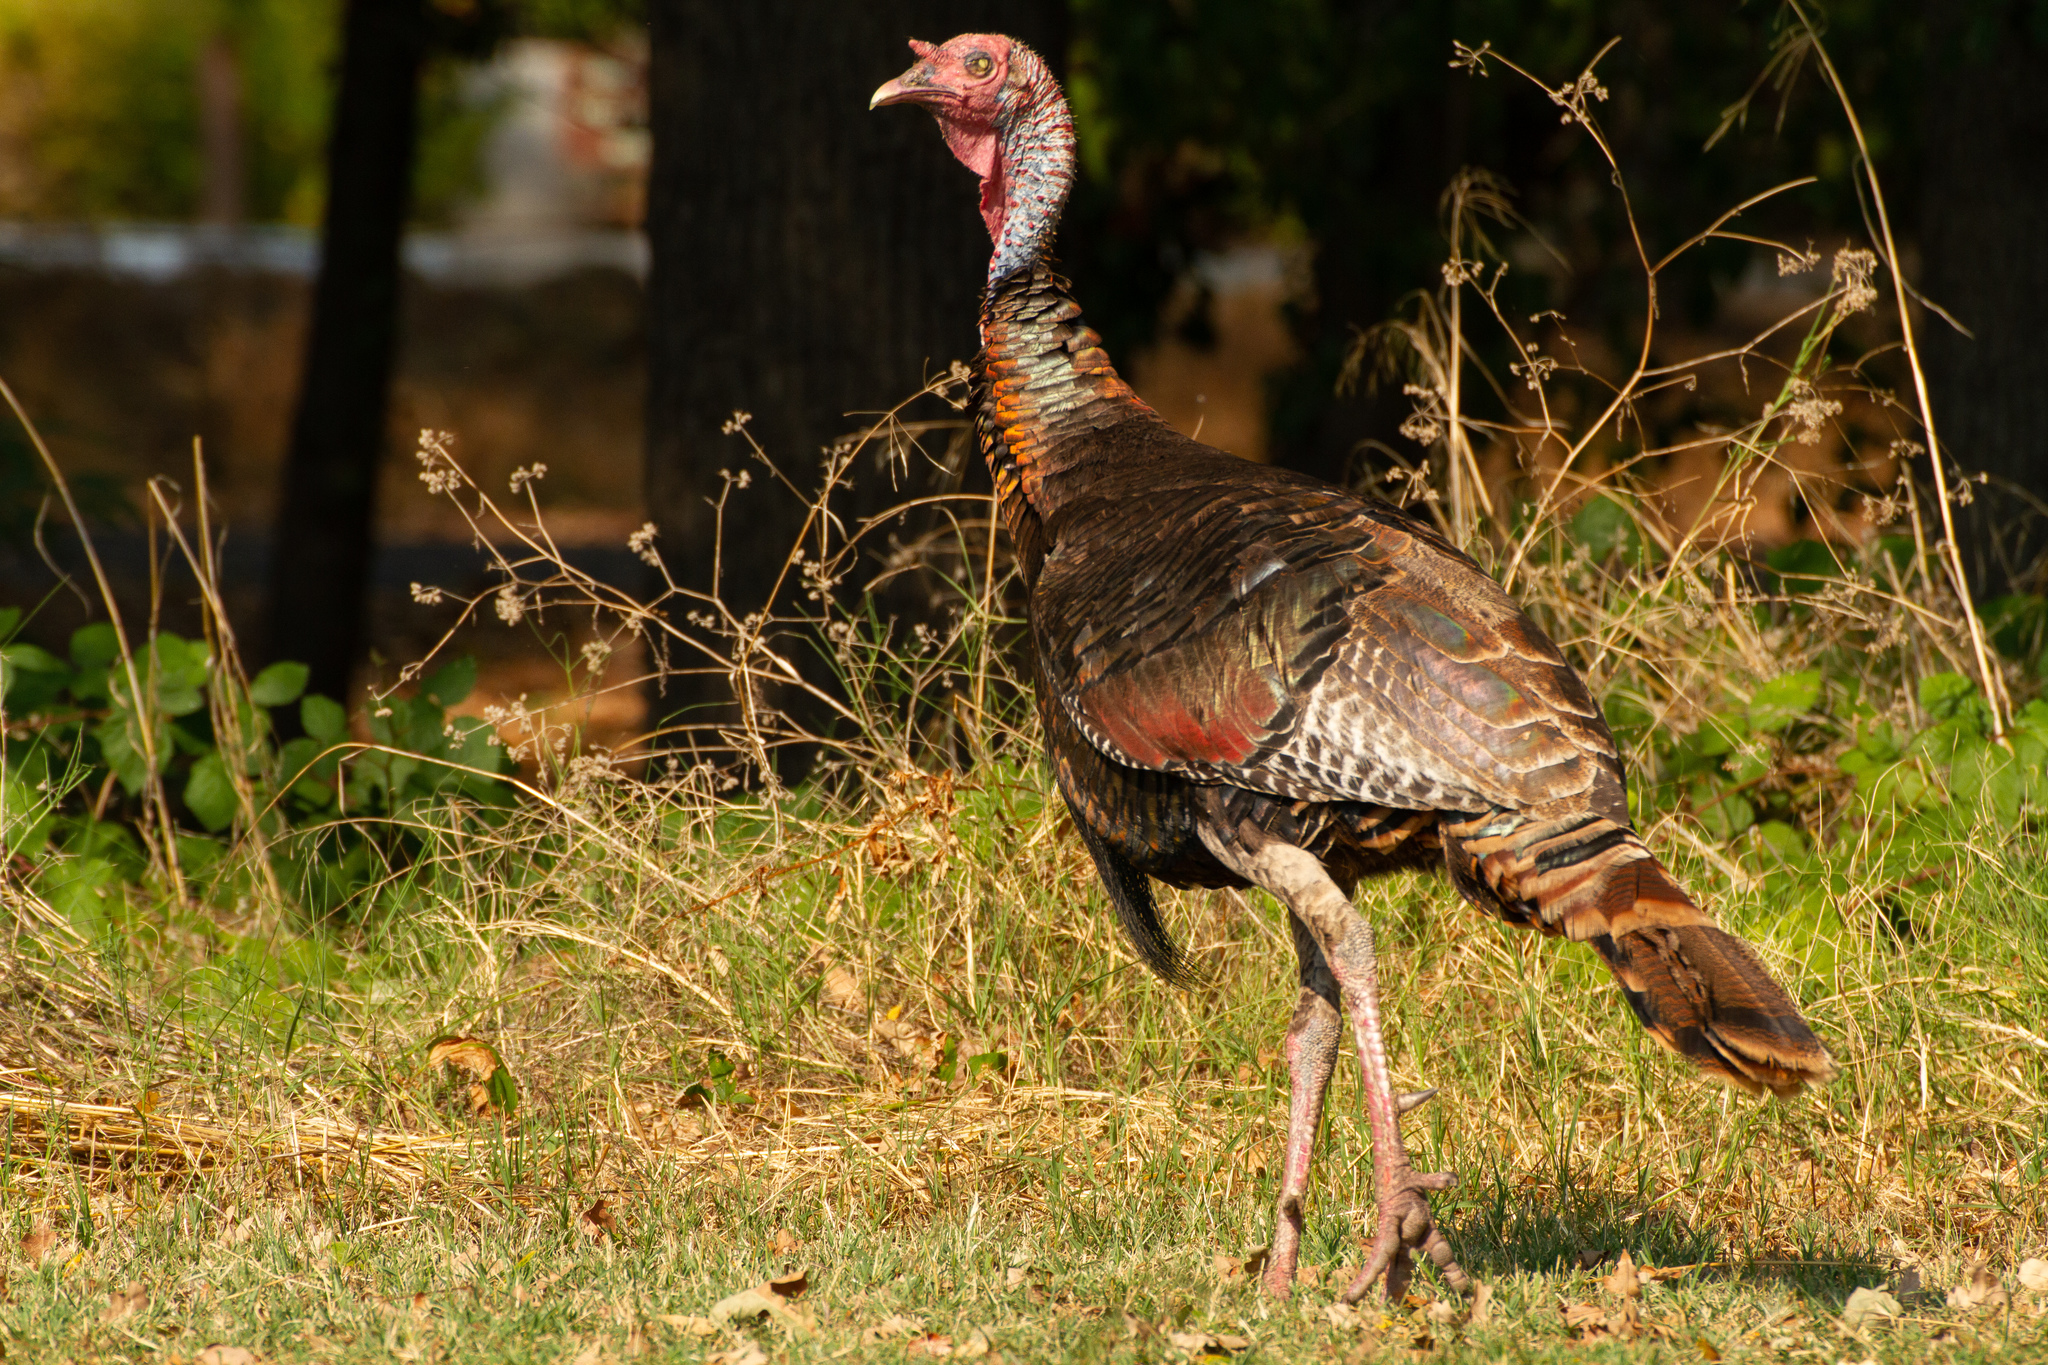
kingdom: Animalia
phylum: Chordata
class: Aves
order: Galliformes
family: Phasianidae
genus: Meleagris
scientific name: Meleagris gallopavo
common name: Wild turkey
